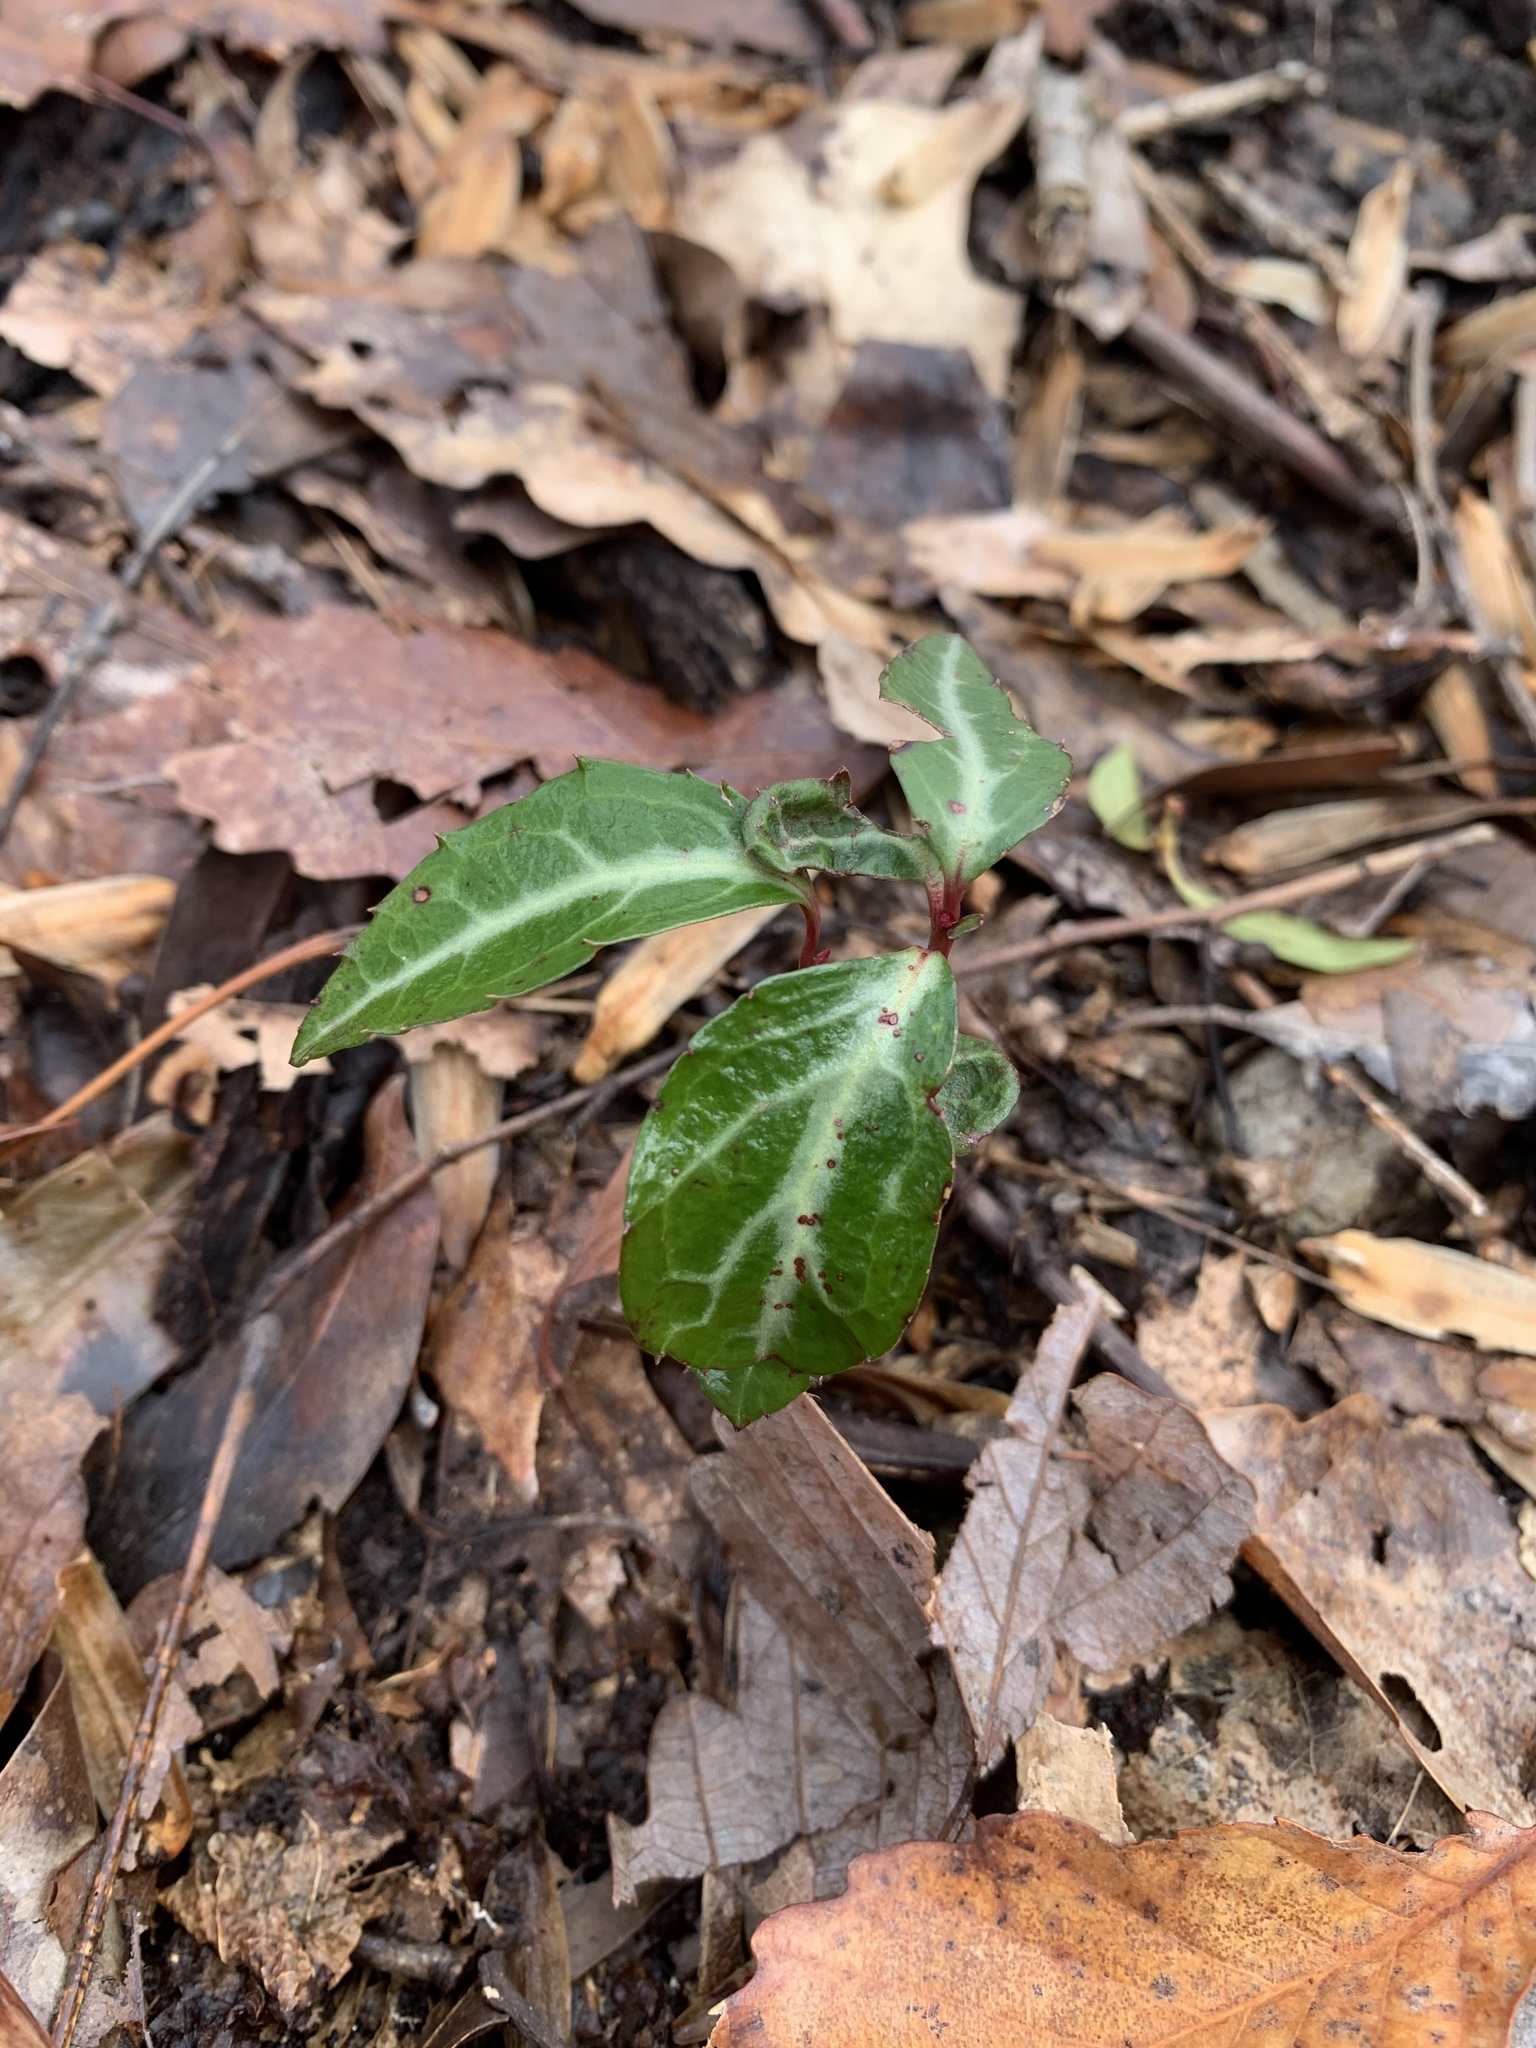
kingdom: Plantae
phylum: Tracheophyta
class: Magnoliopsida
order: Ericales
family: Ericaceae
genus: Chimaphila
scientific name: Chimaphila maculata
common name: Spotted pipsissewa
